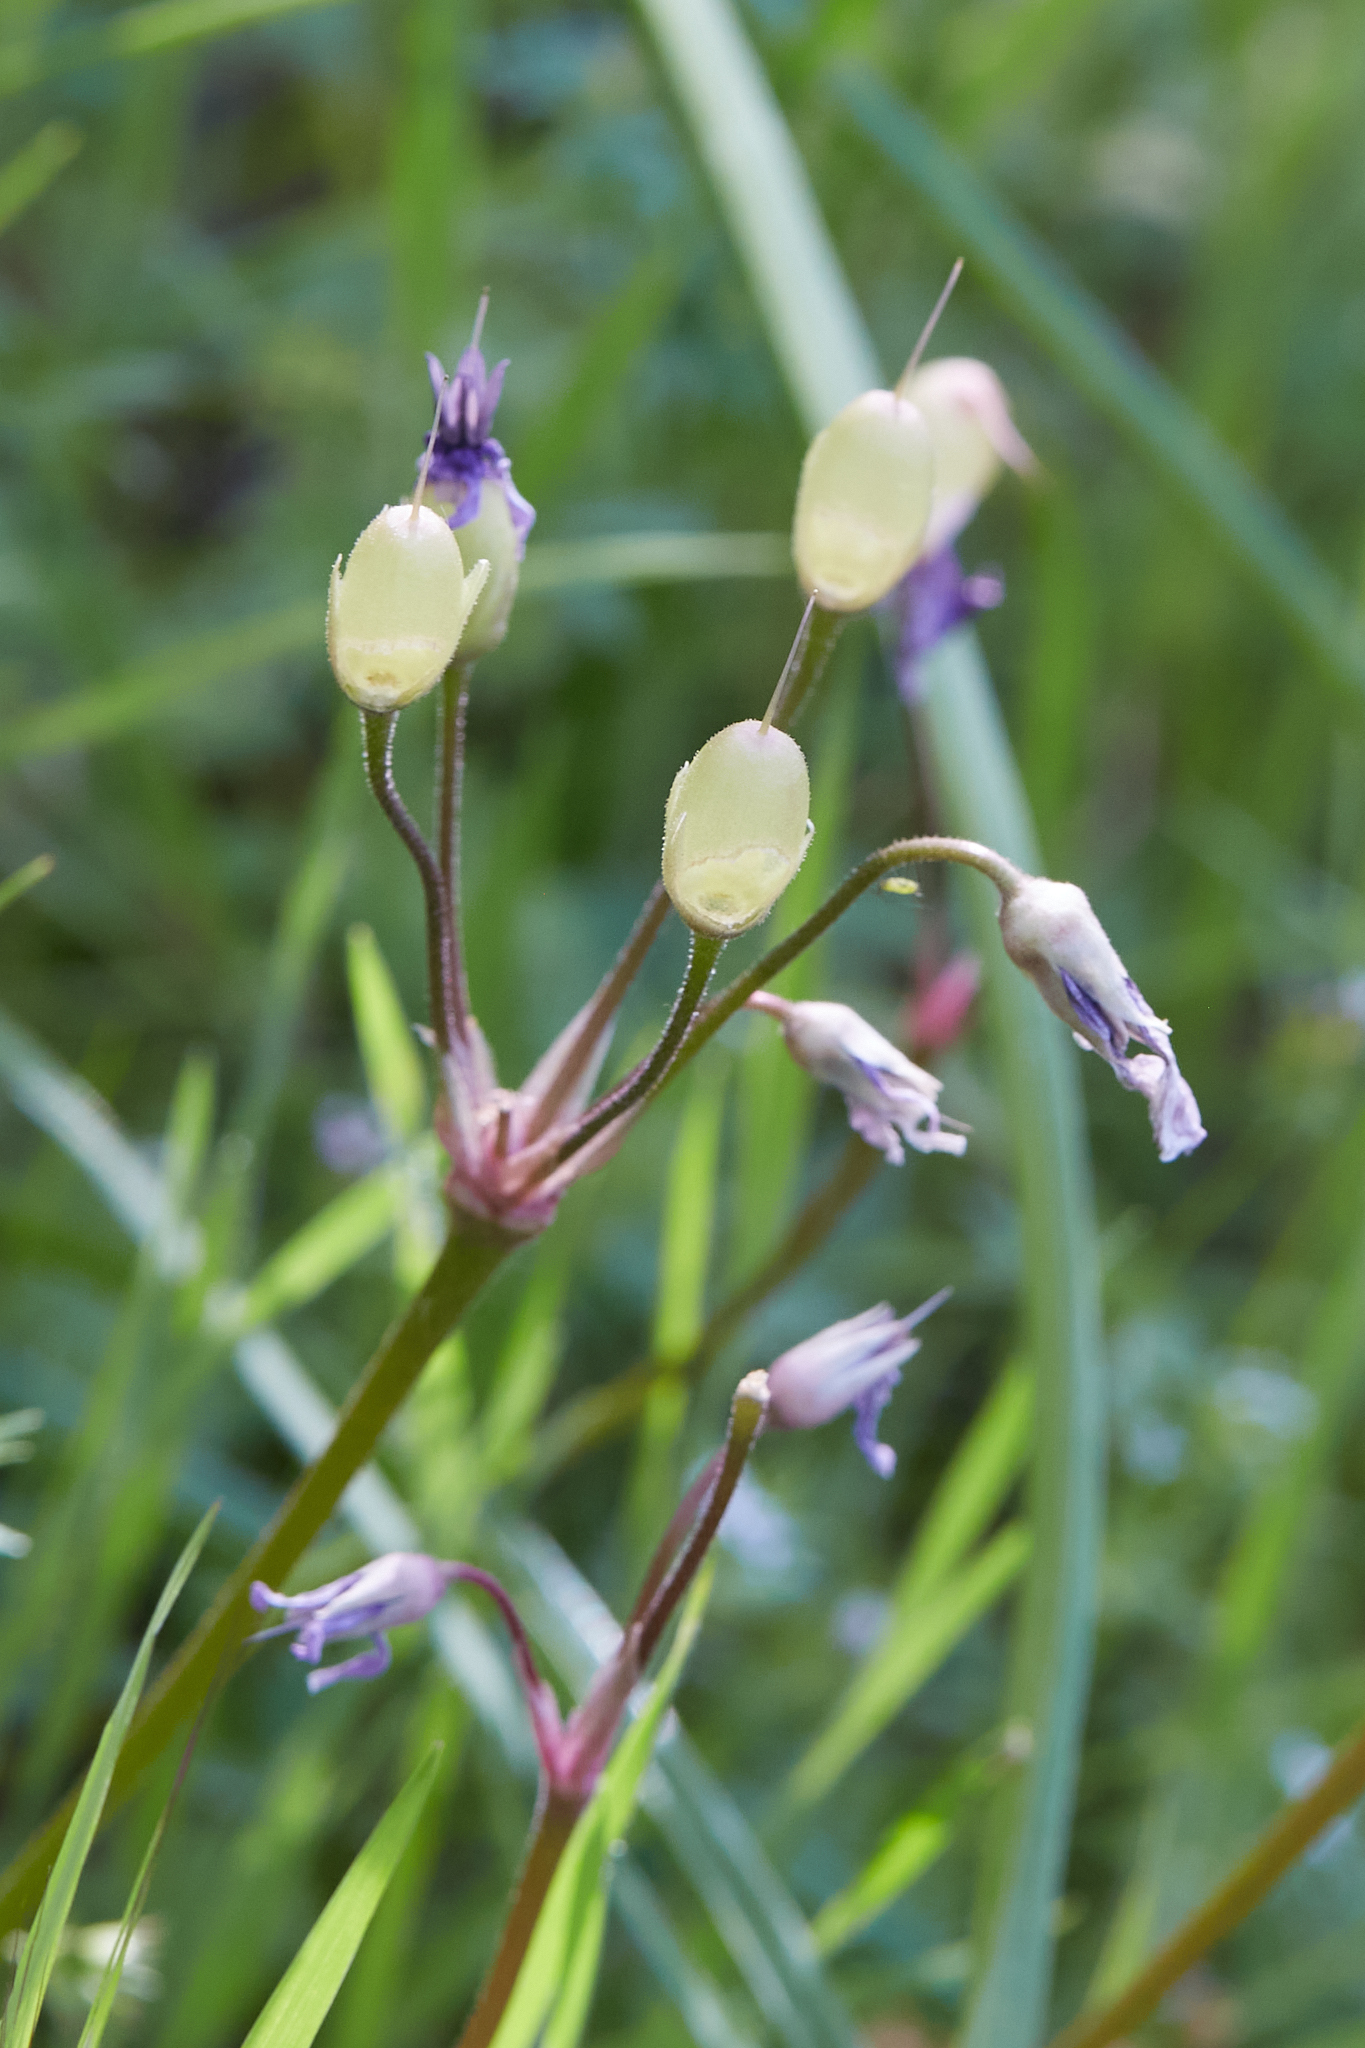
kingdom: Plantae
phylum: Tracheophyta
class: Magnoliopsida
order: Ericales
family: Primulaceae
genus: Dodecatheon
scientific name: Dodecatheon hendersonii
